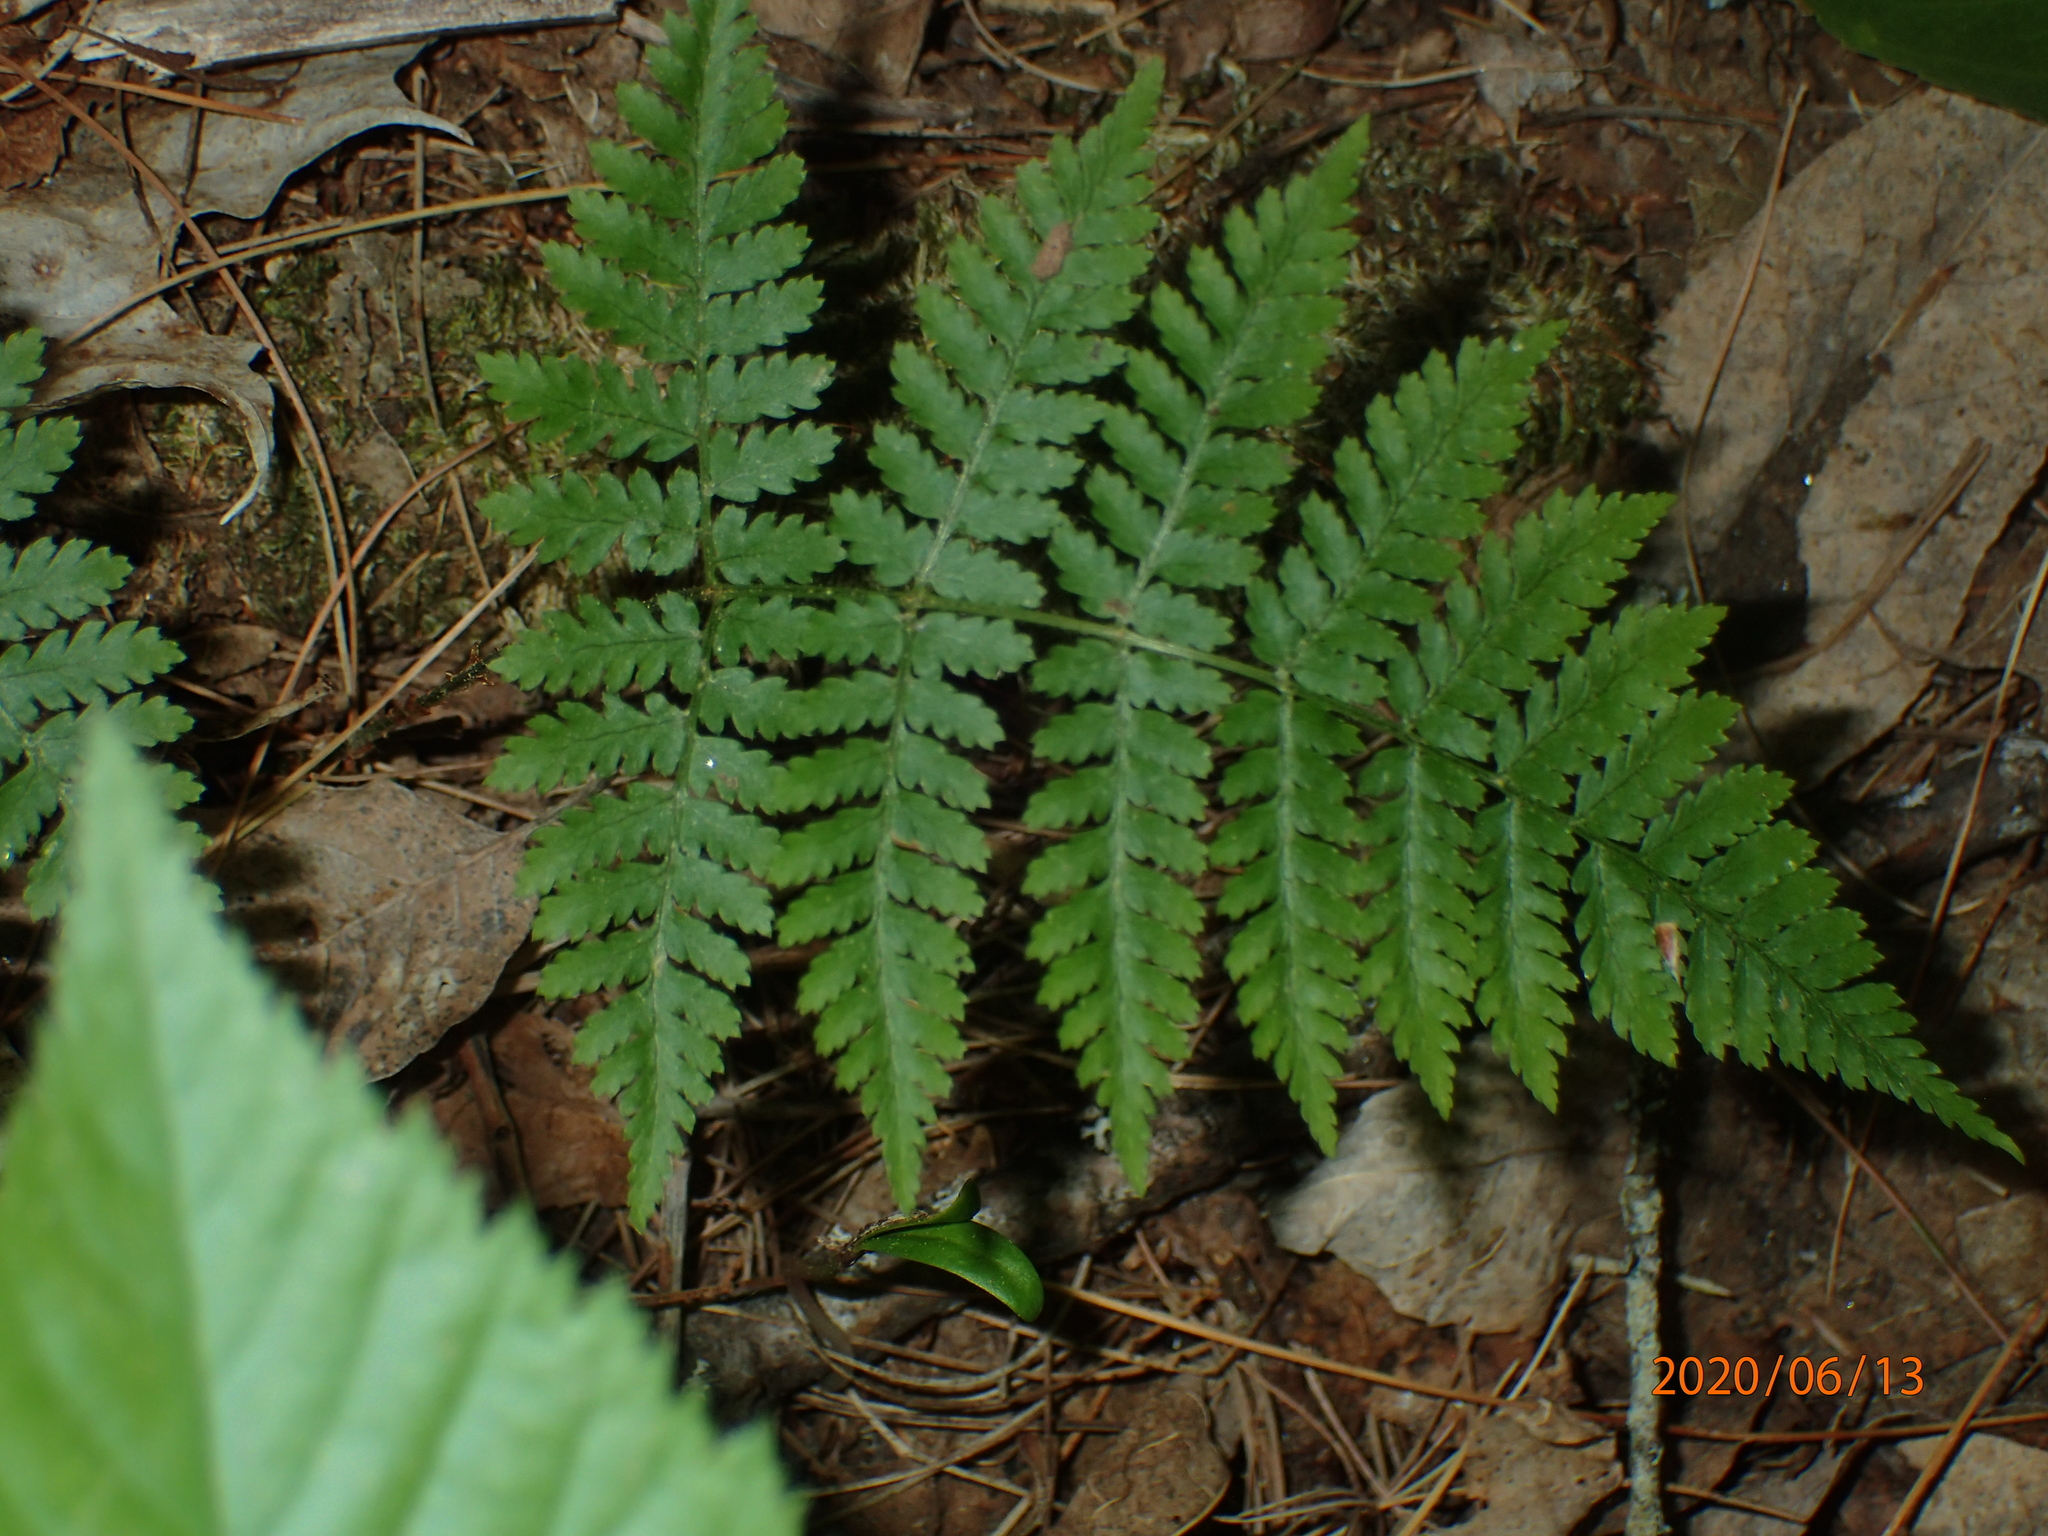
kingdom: Plantae
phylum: Tracheophyta
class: Polypodiopsida
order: Polypodiales
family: Dryopteridaceae
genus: Dryopteris
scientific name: Dryopteris intermedia
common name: Evergreen wood fern
